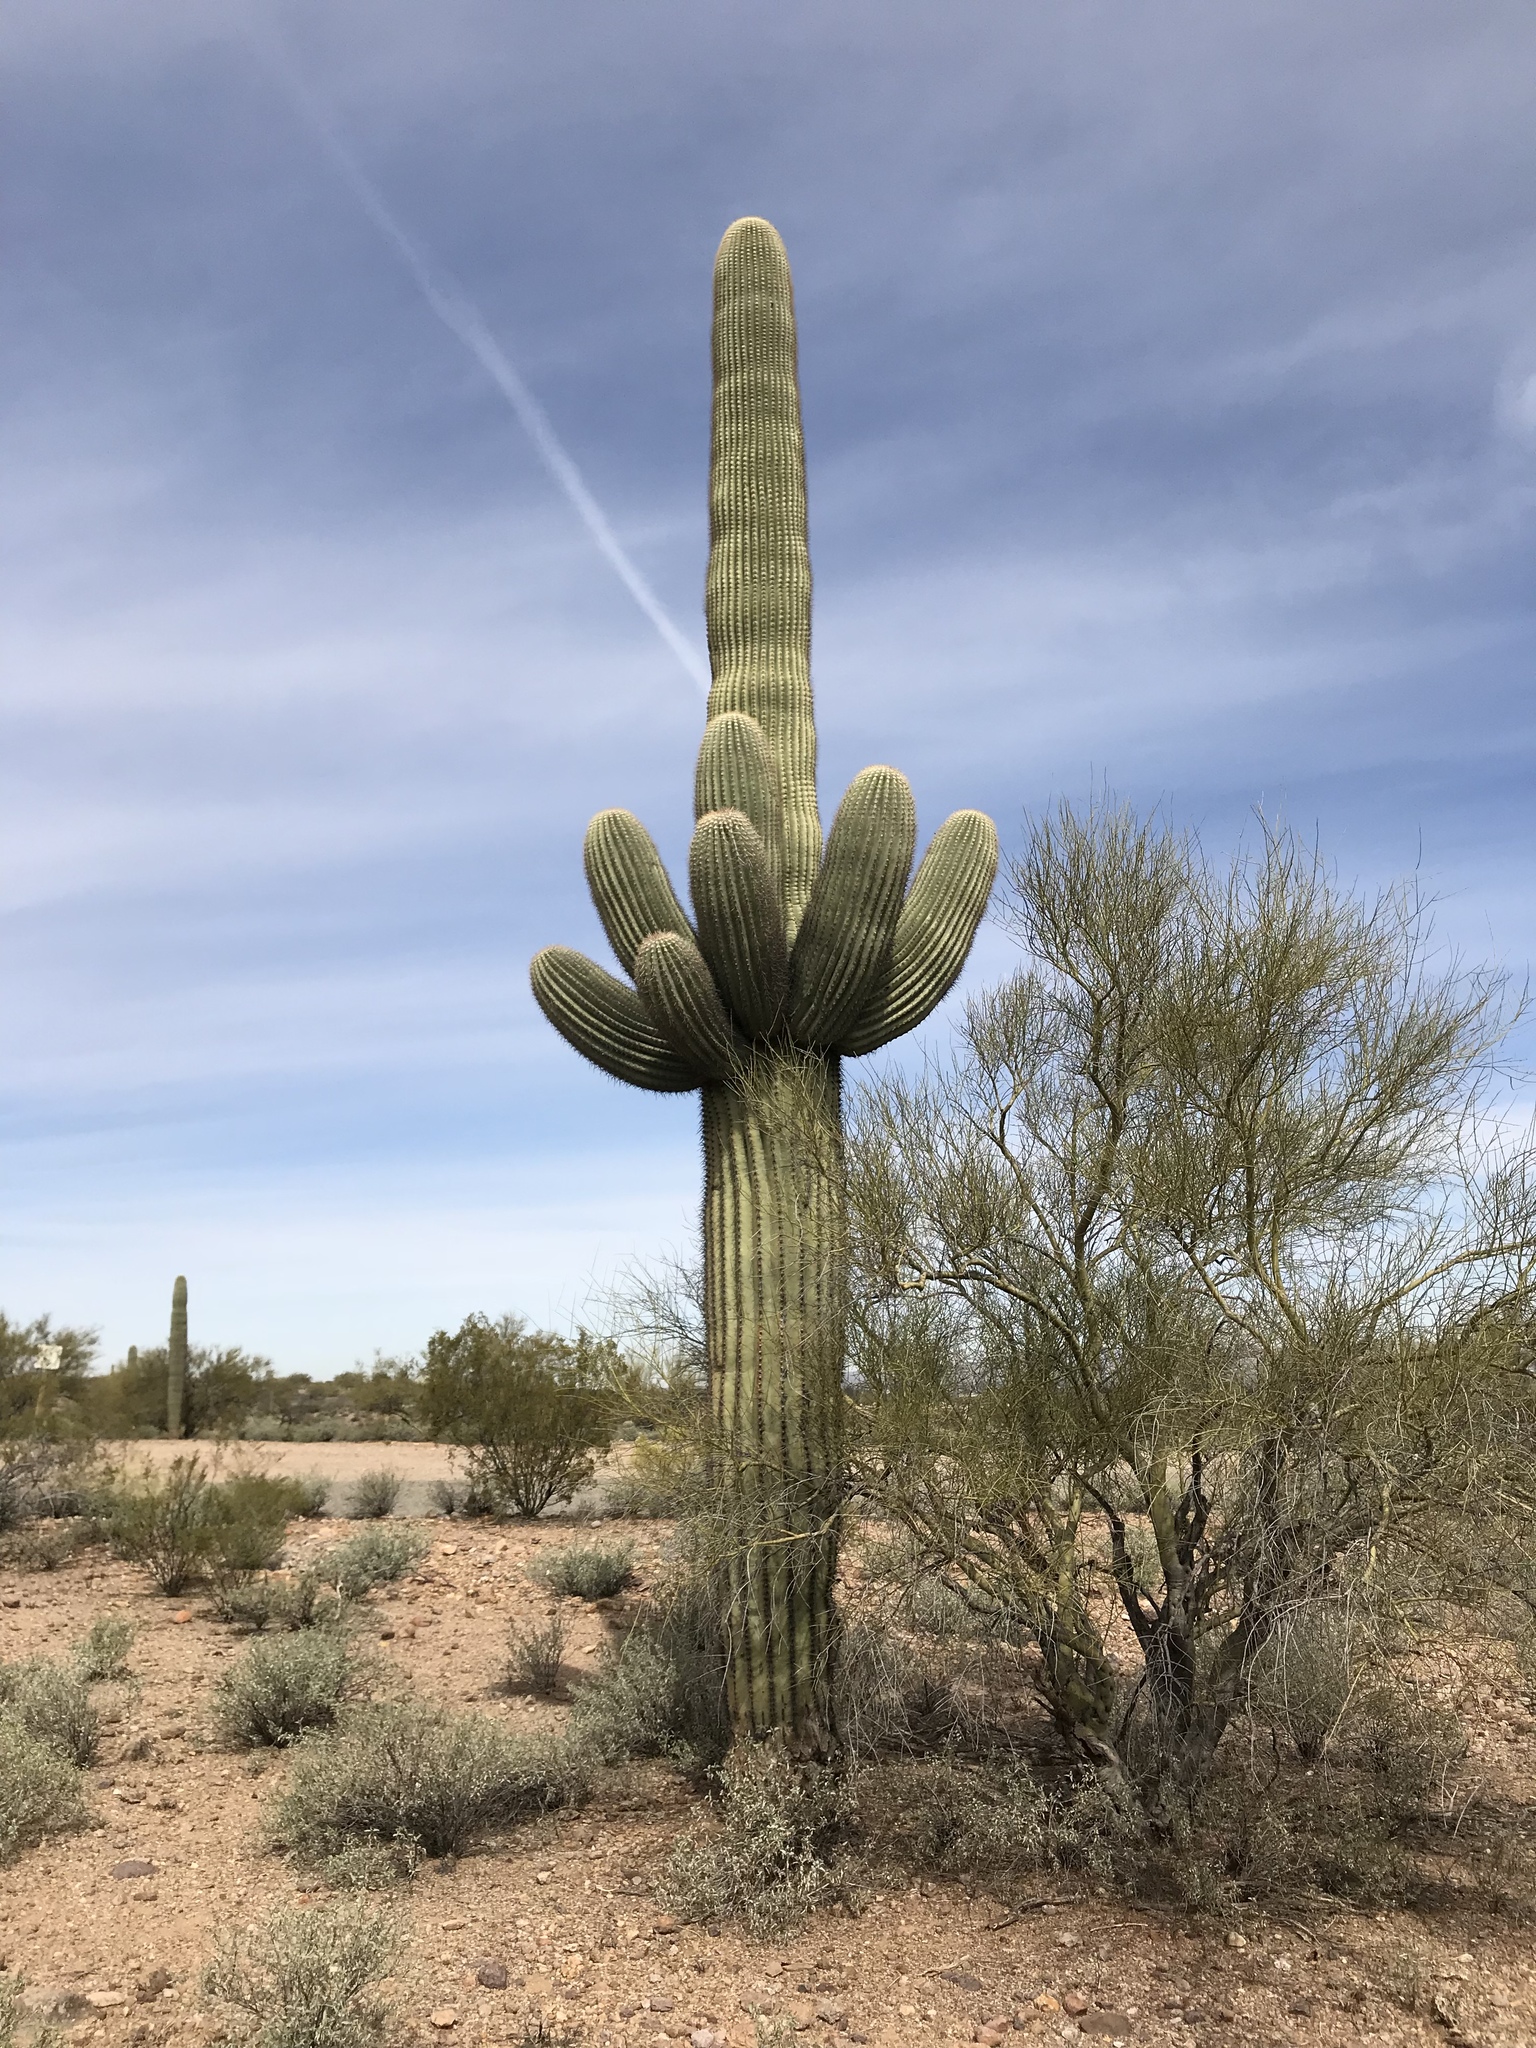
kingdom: Plantae
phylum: Tracheophyta
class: Magnoliopsida
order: Caryophyllales
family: Cactaceae
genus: Carnegiea
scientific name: Carnegiea gigantea
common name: Saguaro
